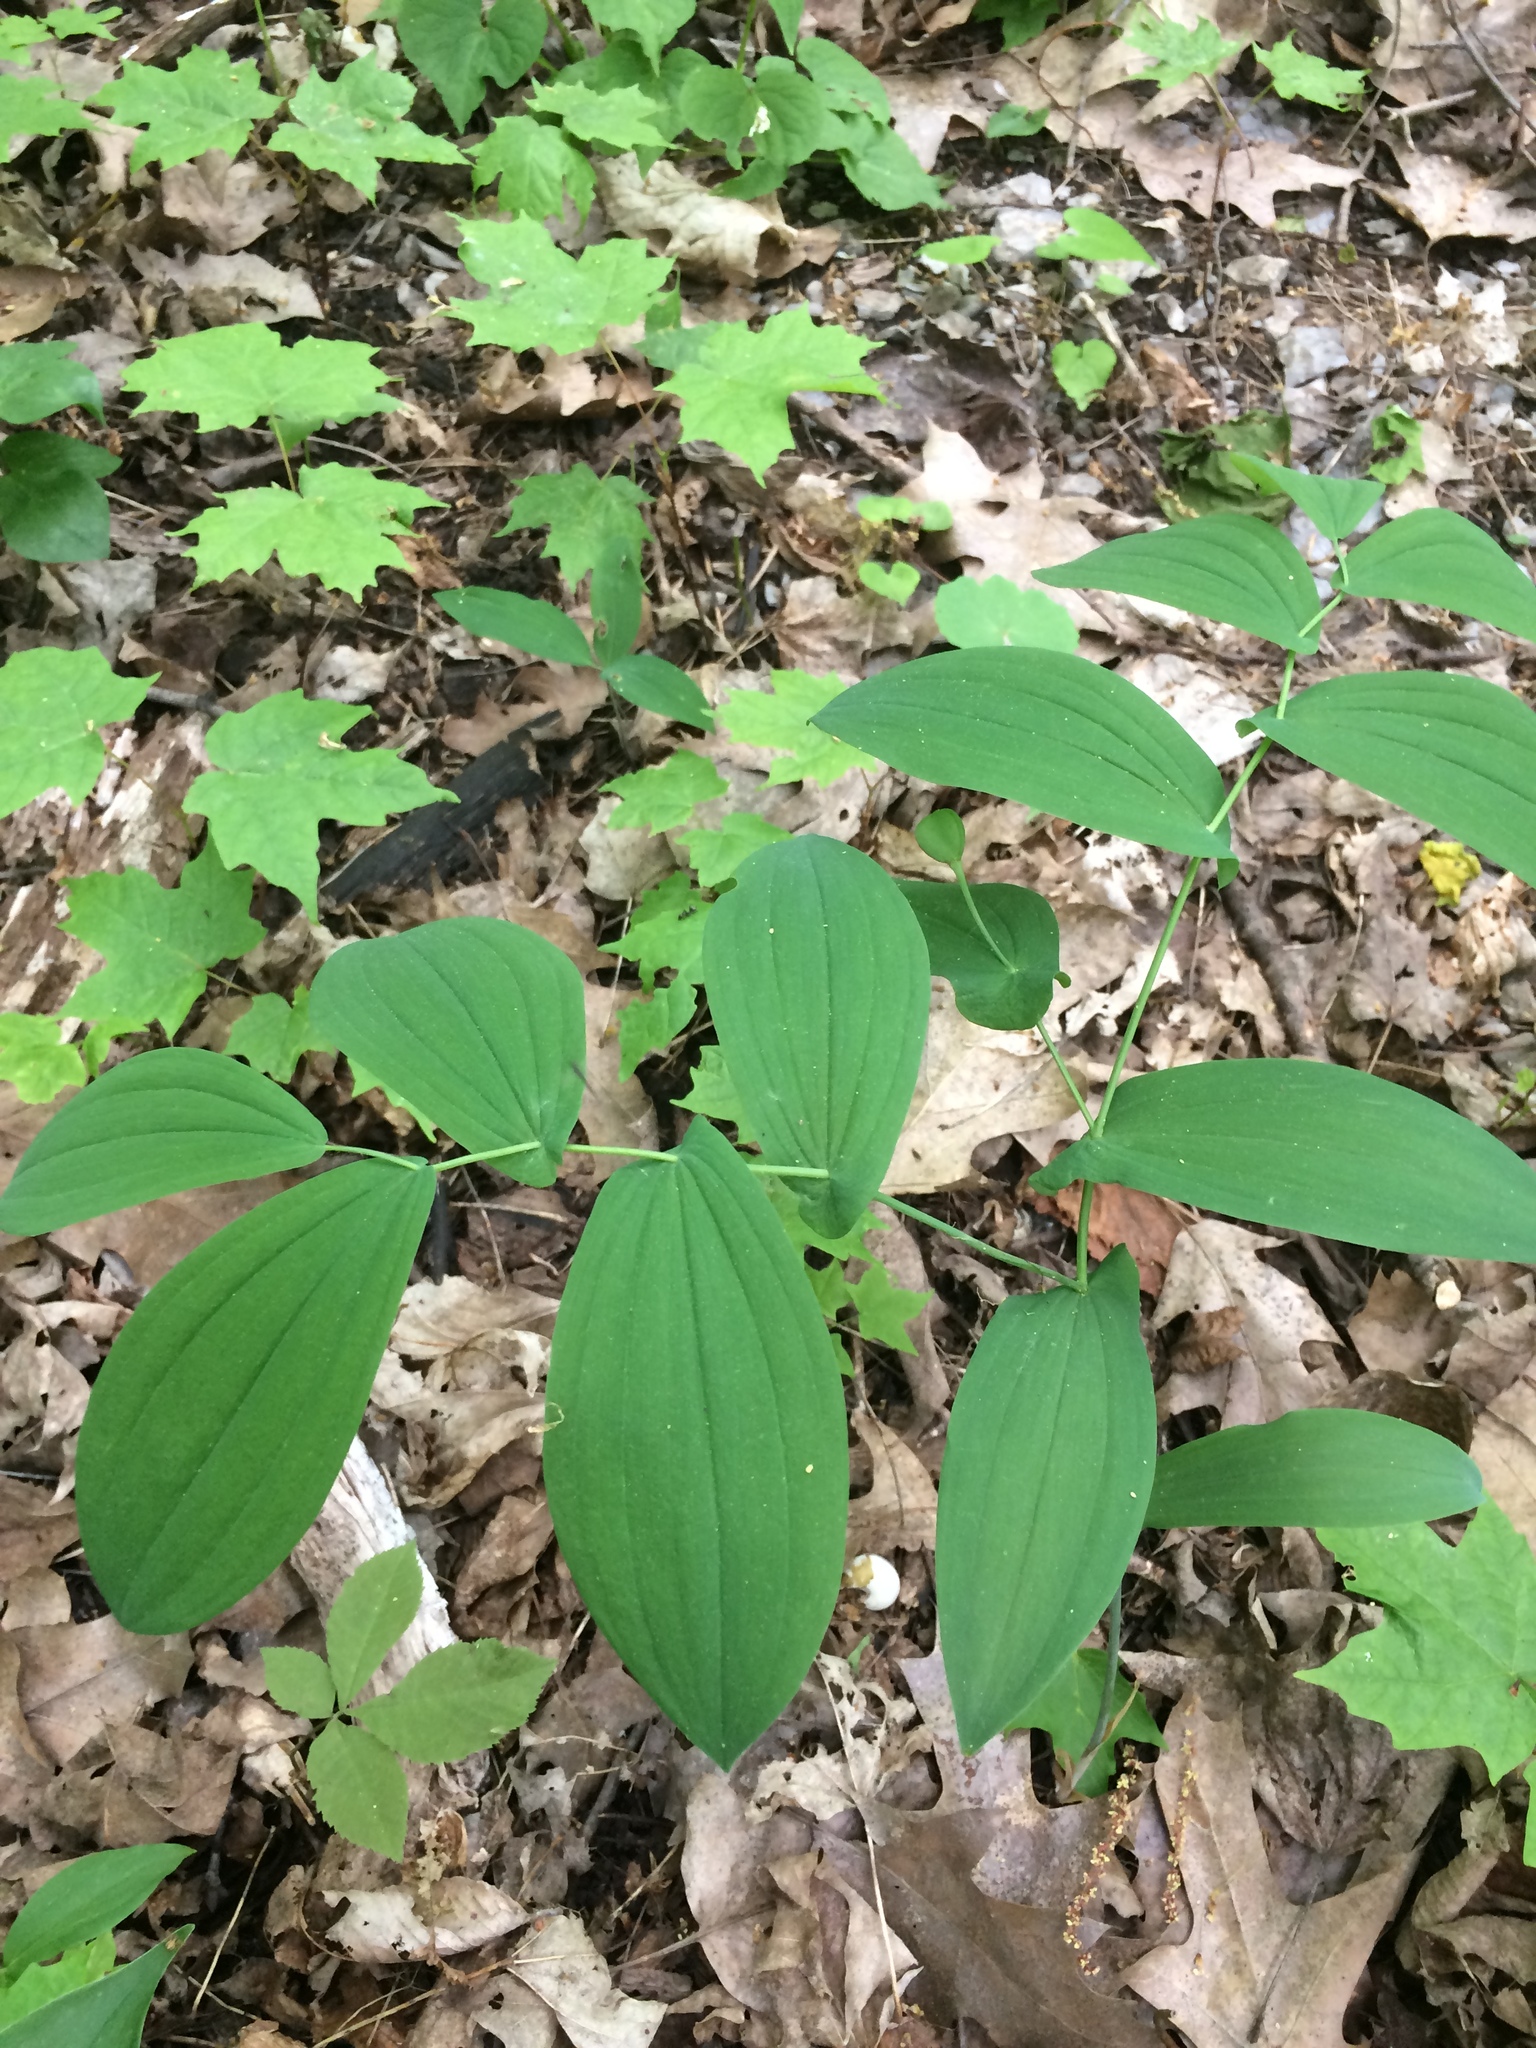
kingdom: Plantae
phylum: Tracheophyta
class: Liliopsida
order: Liliales
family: Colchicaceae
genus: Uvularia
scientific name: Uvularia grandiflora
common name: Bellwort
